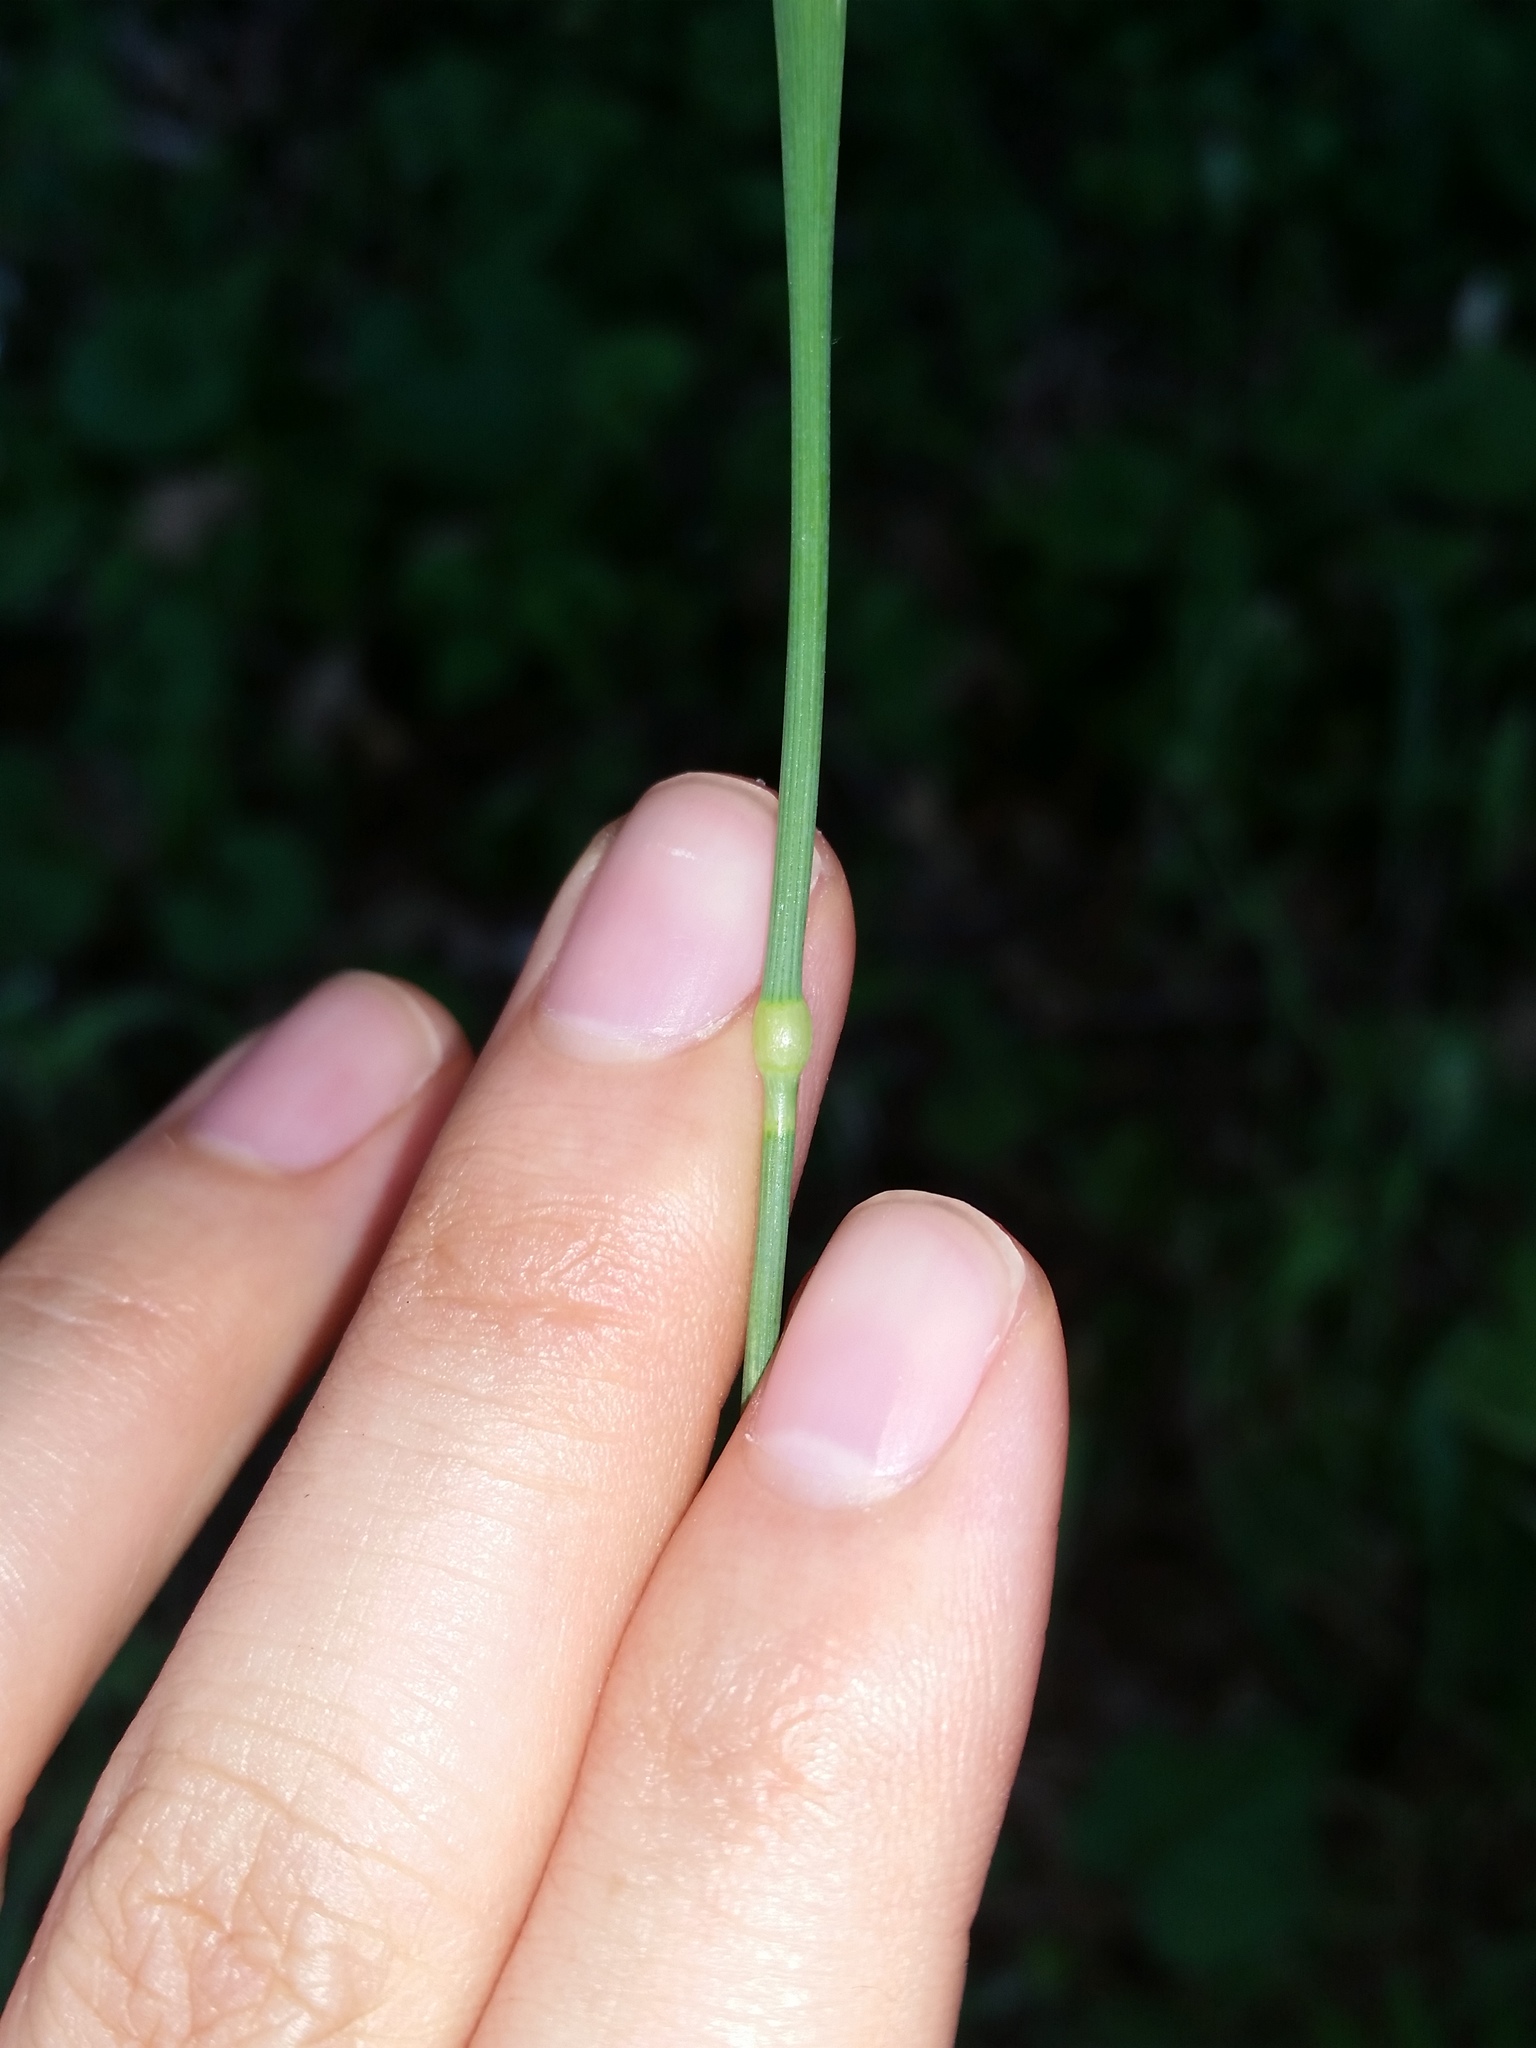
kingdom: Plantae
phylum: Tracheophyta
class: Liliopsida
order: Poales
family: Poaceae
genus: Phalaris
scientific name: Phalaris canariensis
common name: Annual canarygrass
